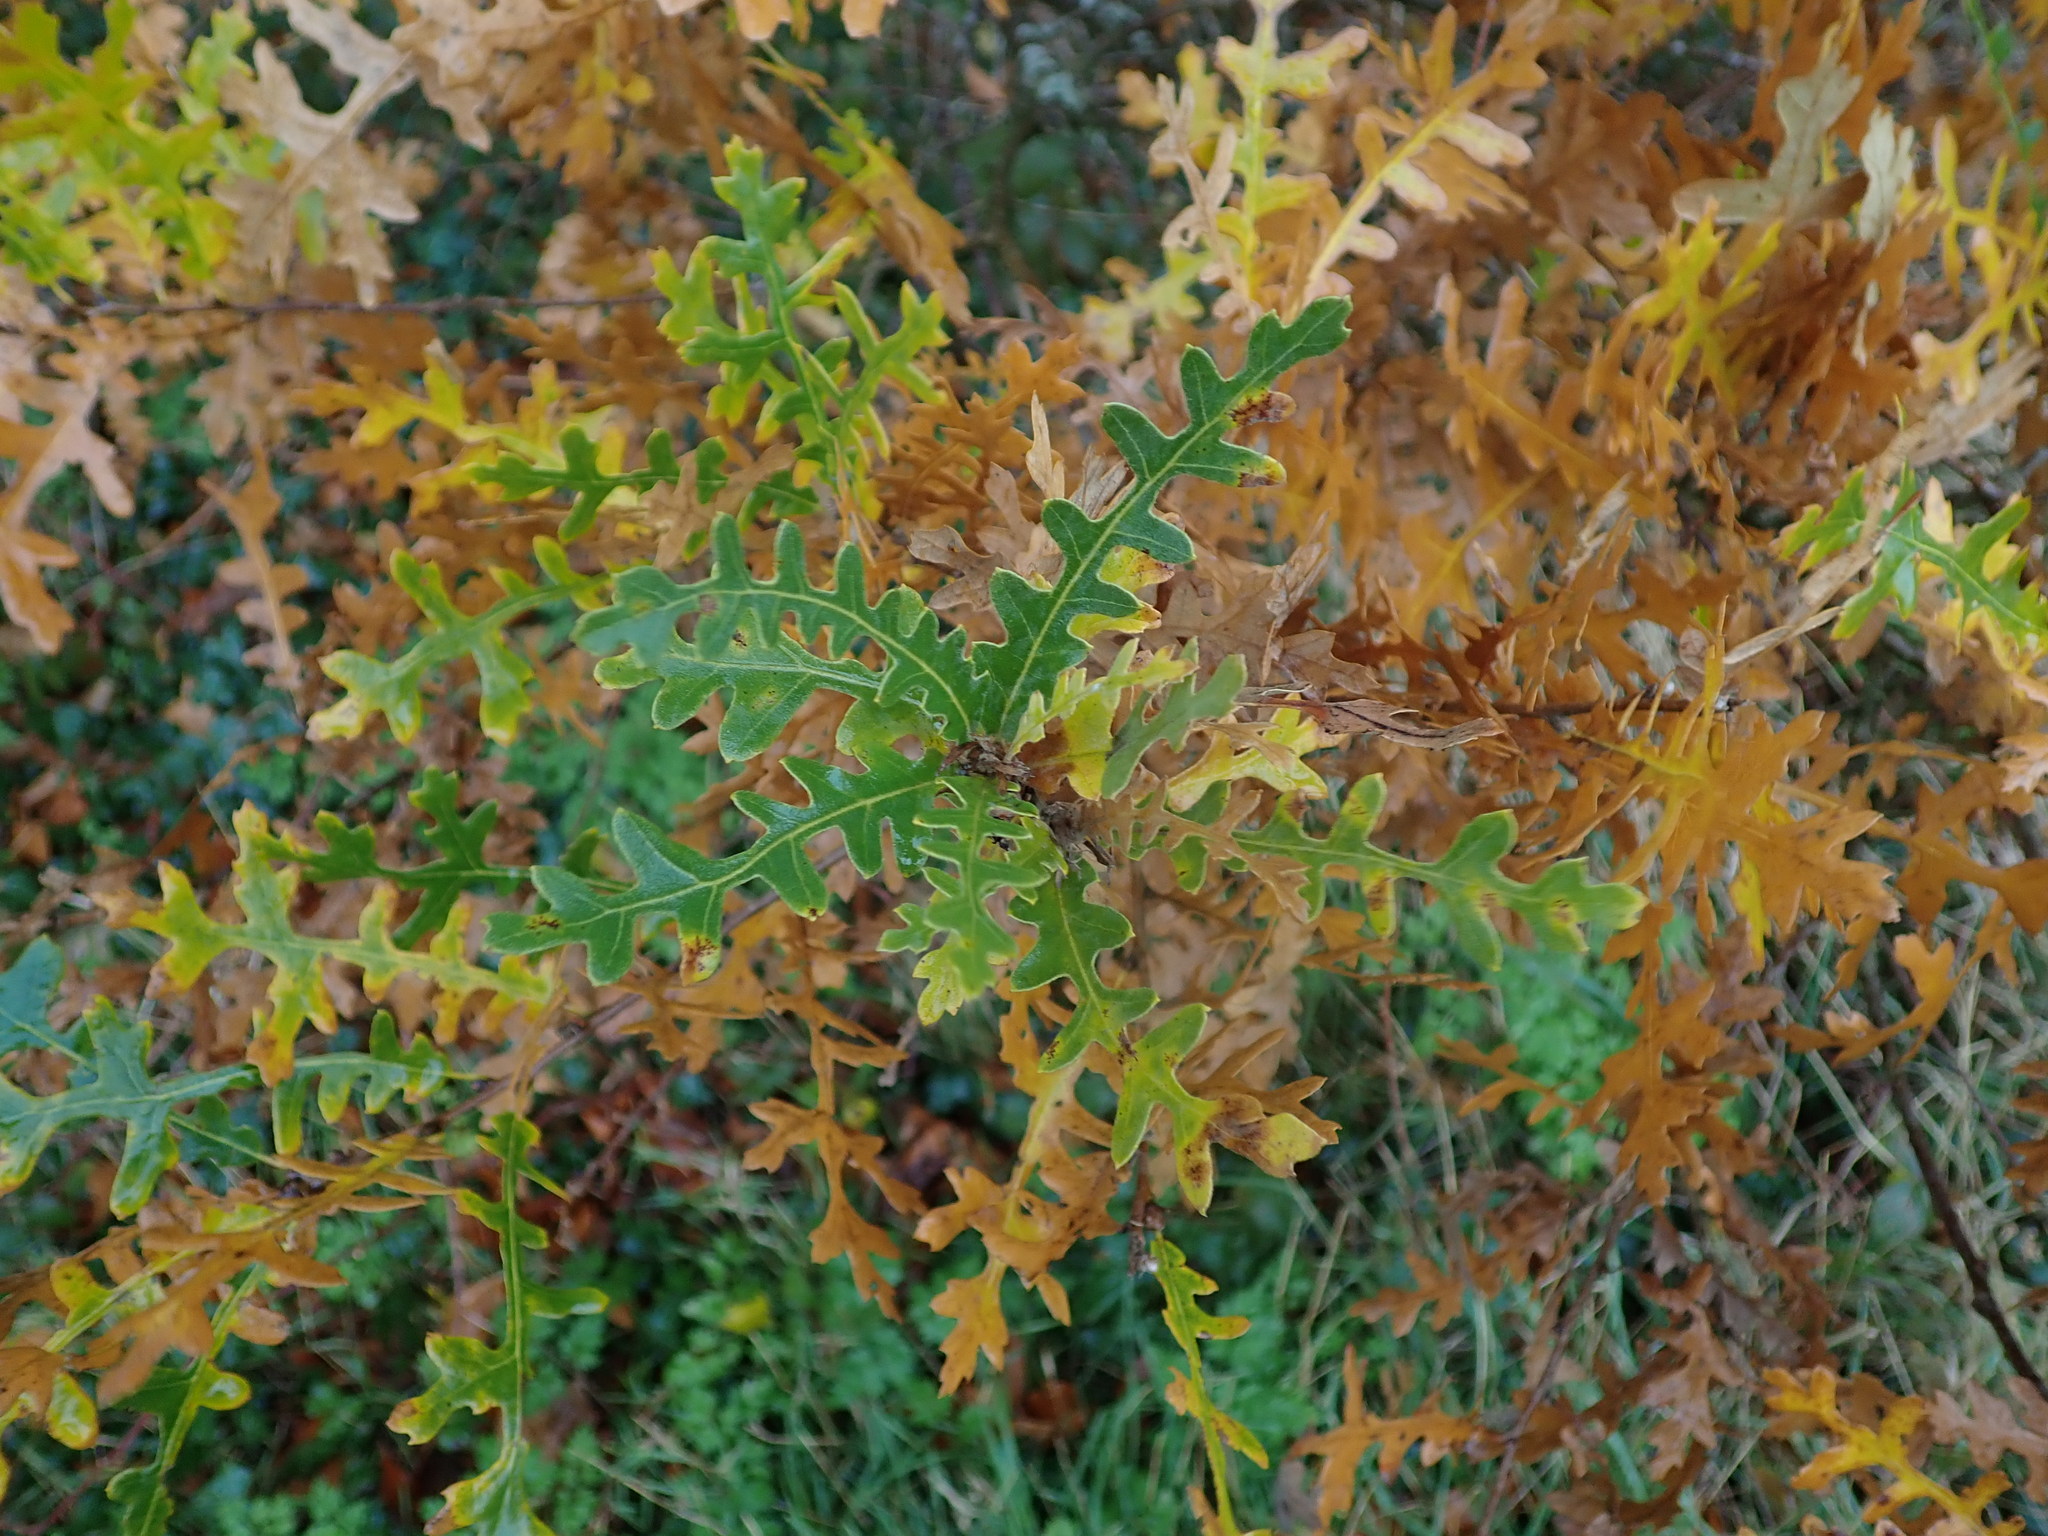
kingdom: Plantae
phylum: Tracheophyta
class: Magnoliopsida
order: Fagales
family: Fagaceae
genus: Quercus
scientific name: Quercus cerris
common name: Turkey oak
